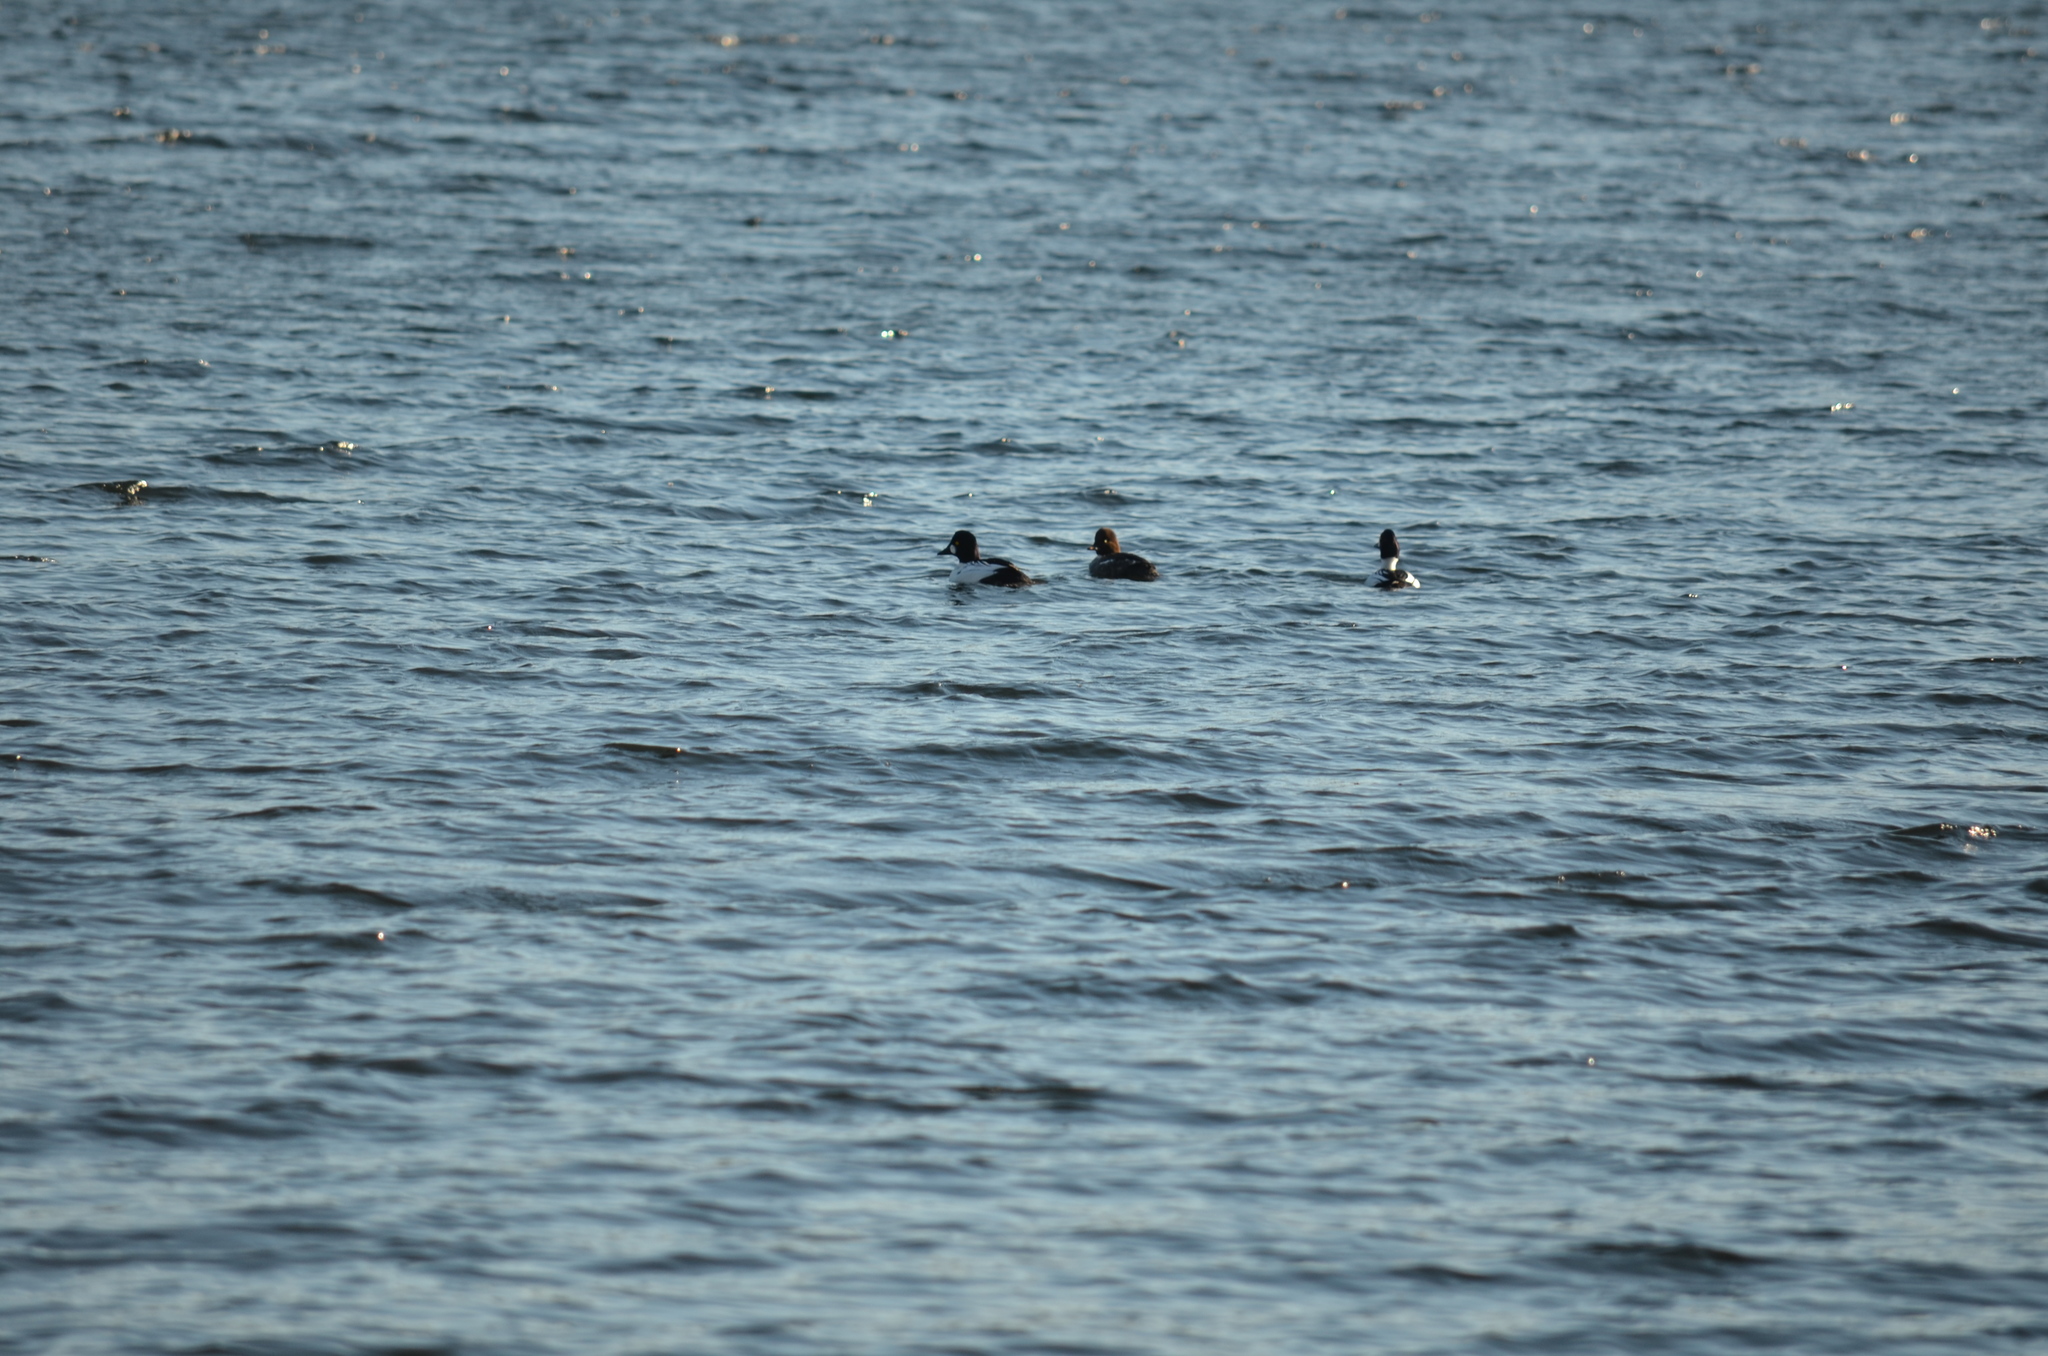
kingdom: Animalia
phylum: Chordata
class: Aves
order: Anseriformes
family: Anatidae
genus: Bucephala
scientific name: Bucephala clangula
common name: Common goldeneye
